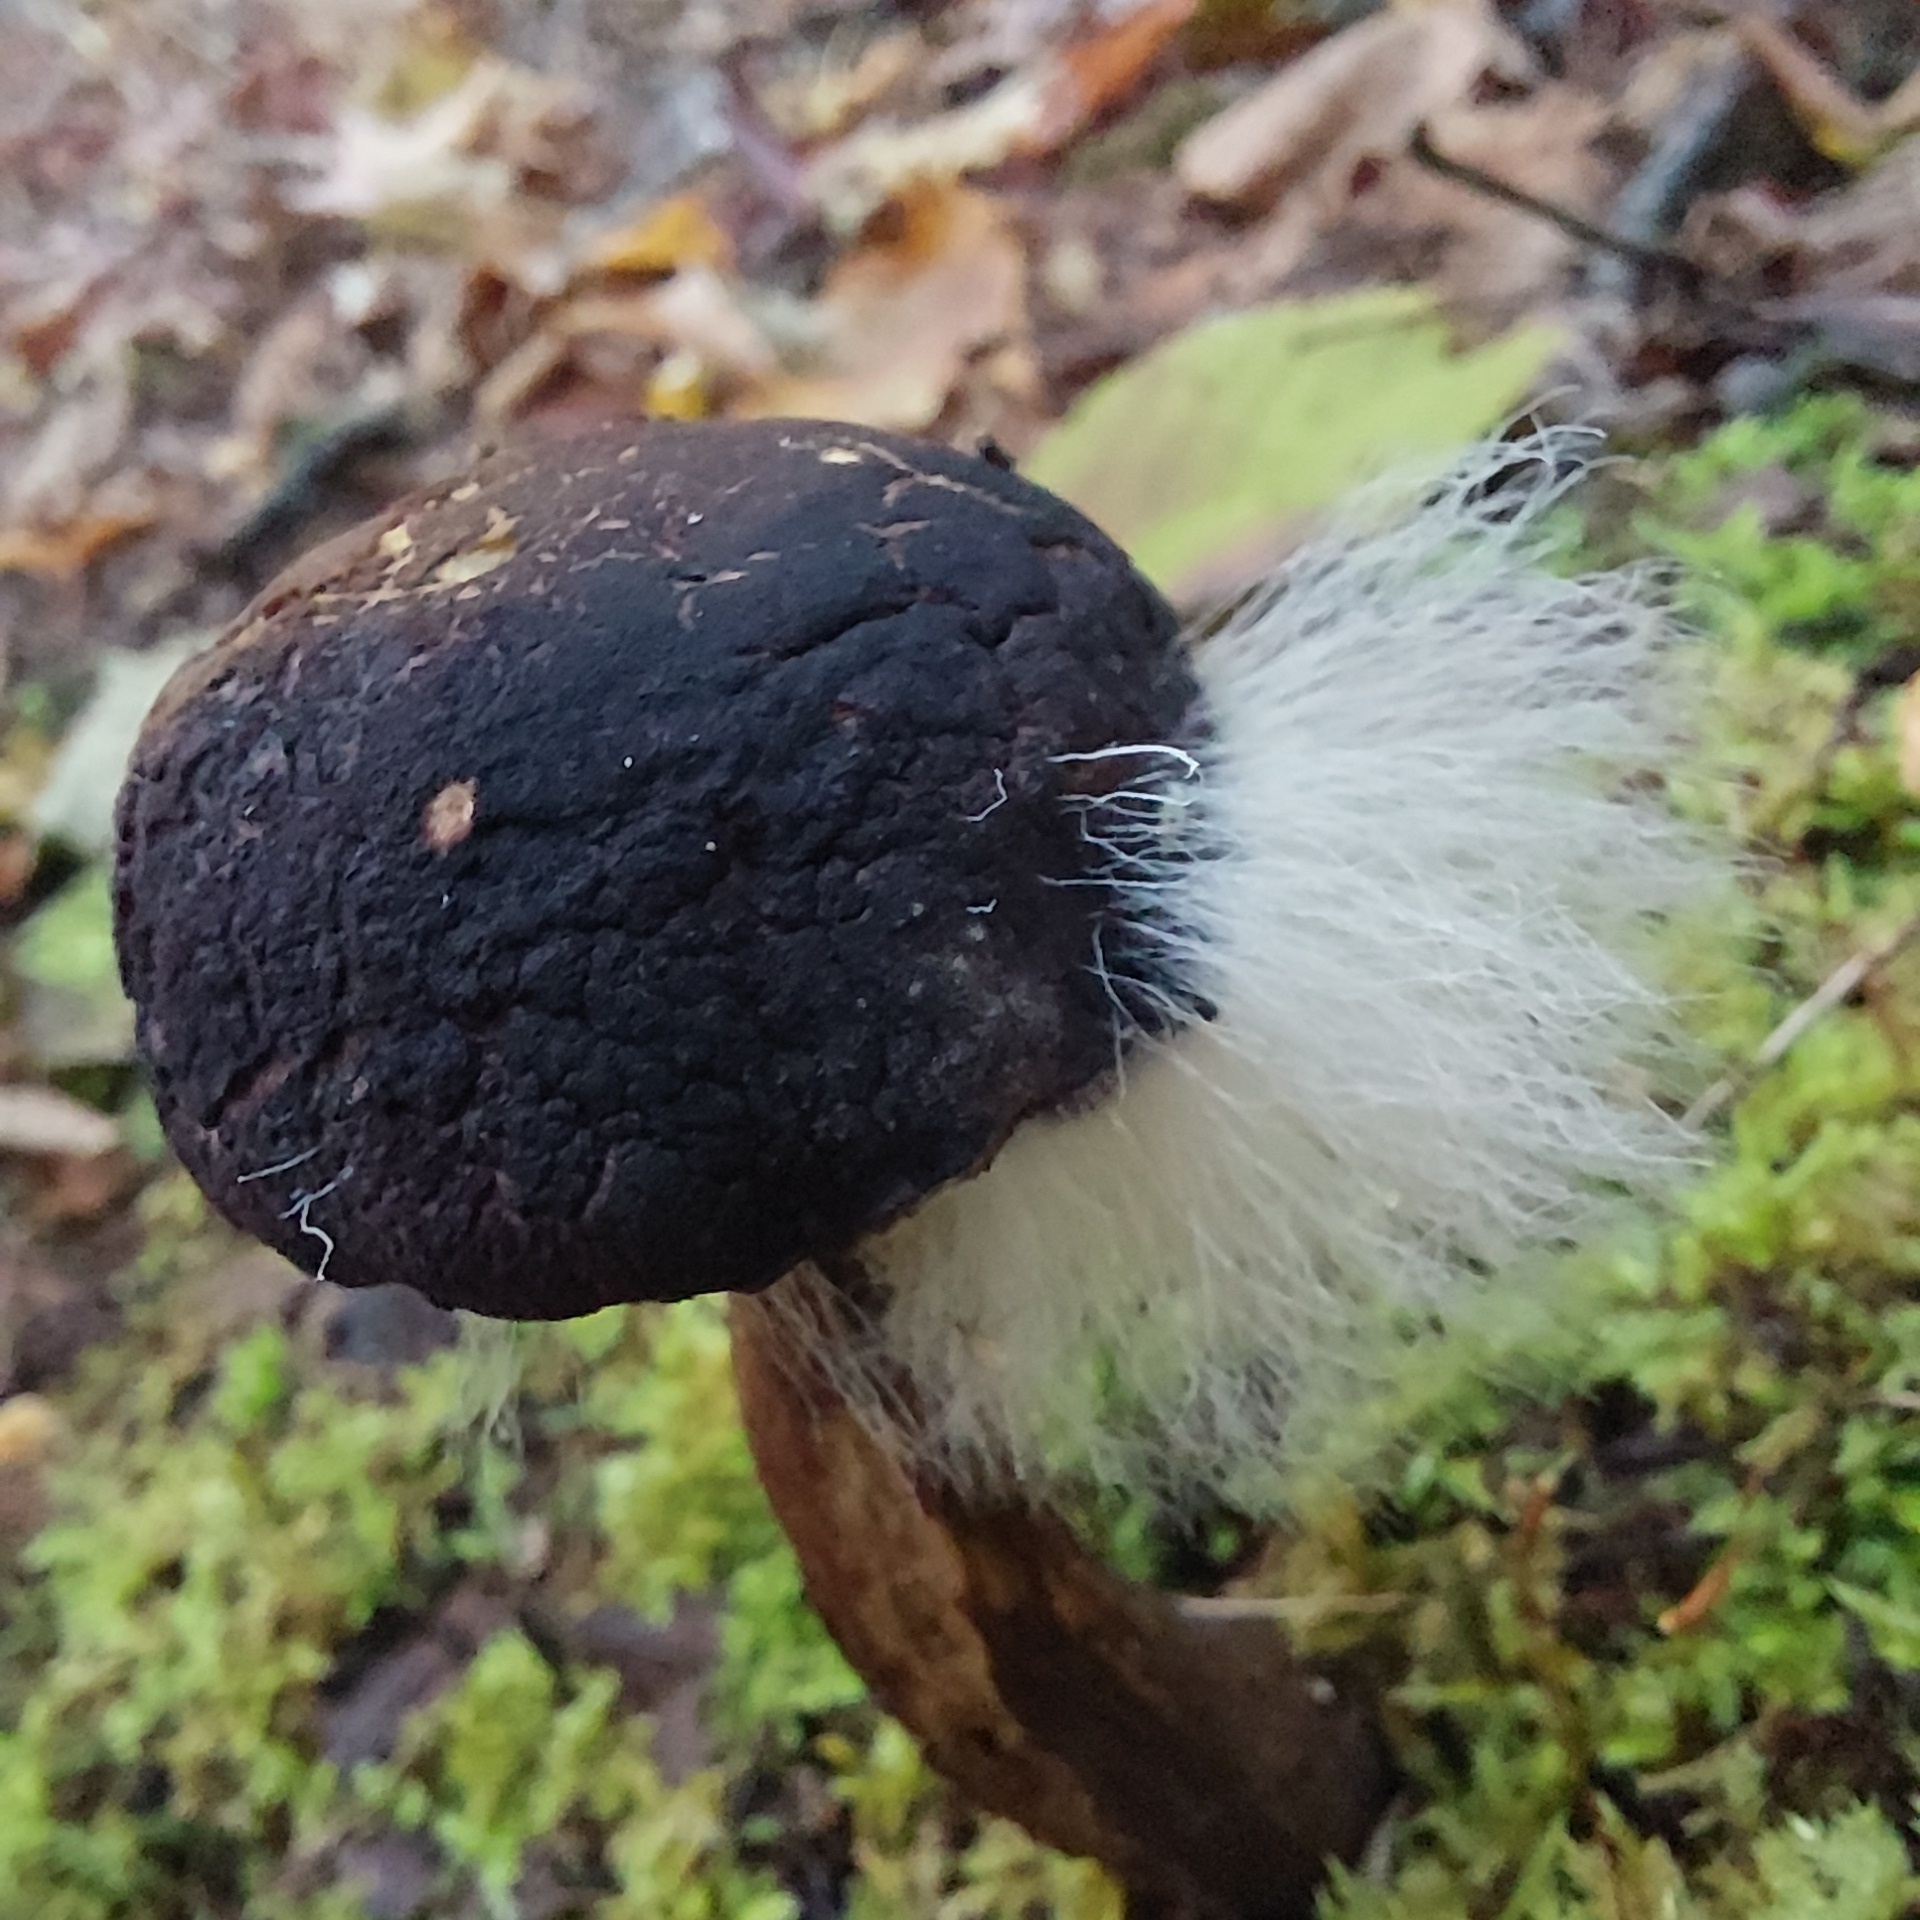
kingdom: Fungi
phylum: Mucoromycota
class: Mucoromycetes
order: Mucorales
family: Rhizopodaceae
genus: Syzygites
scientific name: Syzygites megalocarpus
